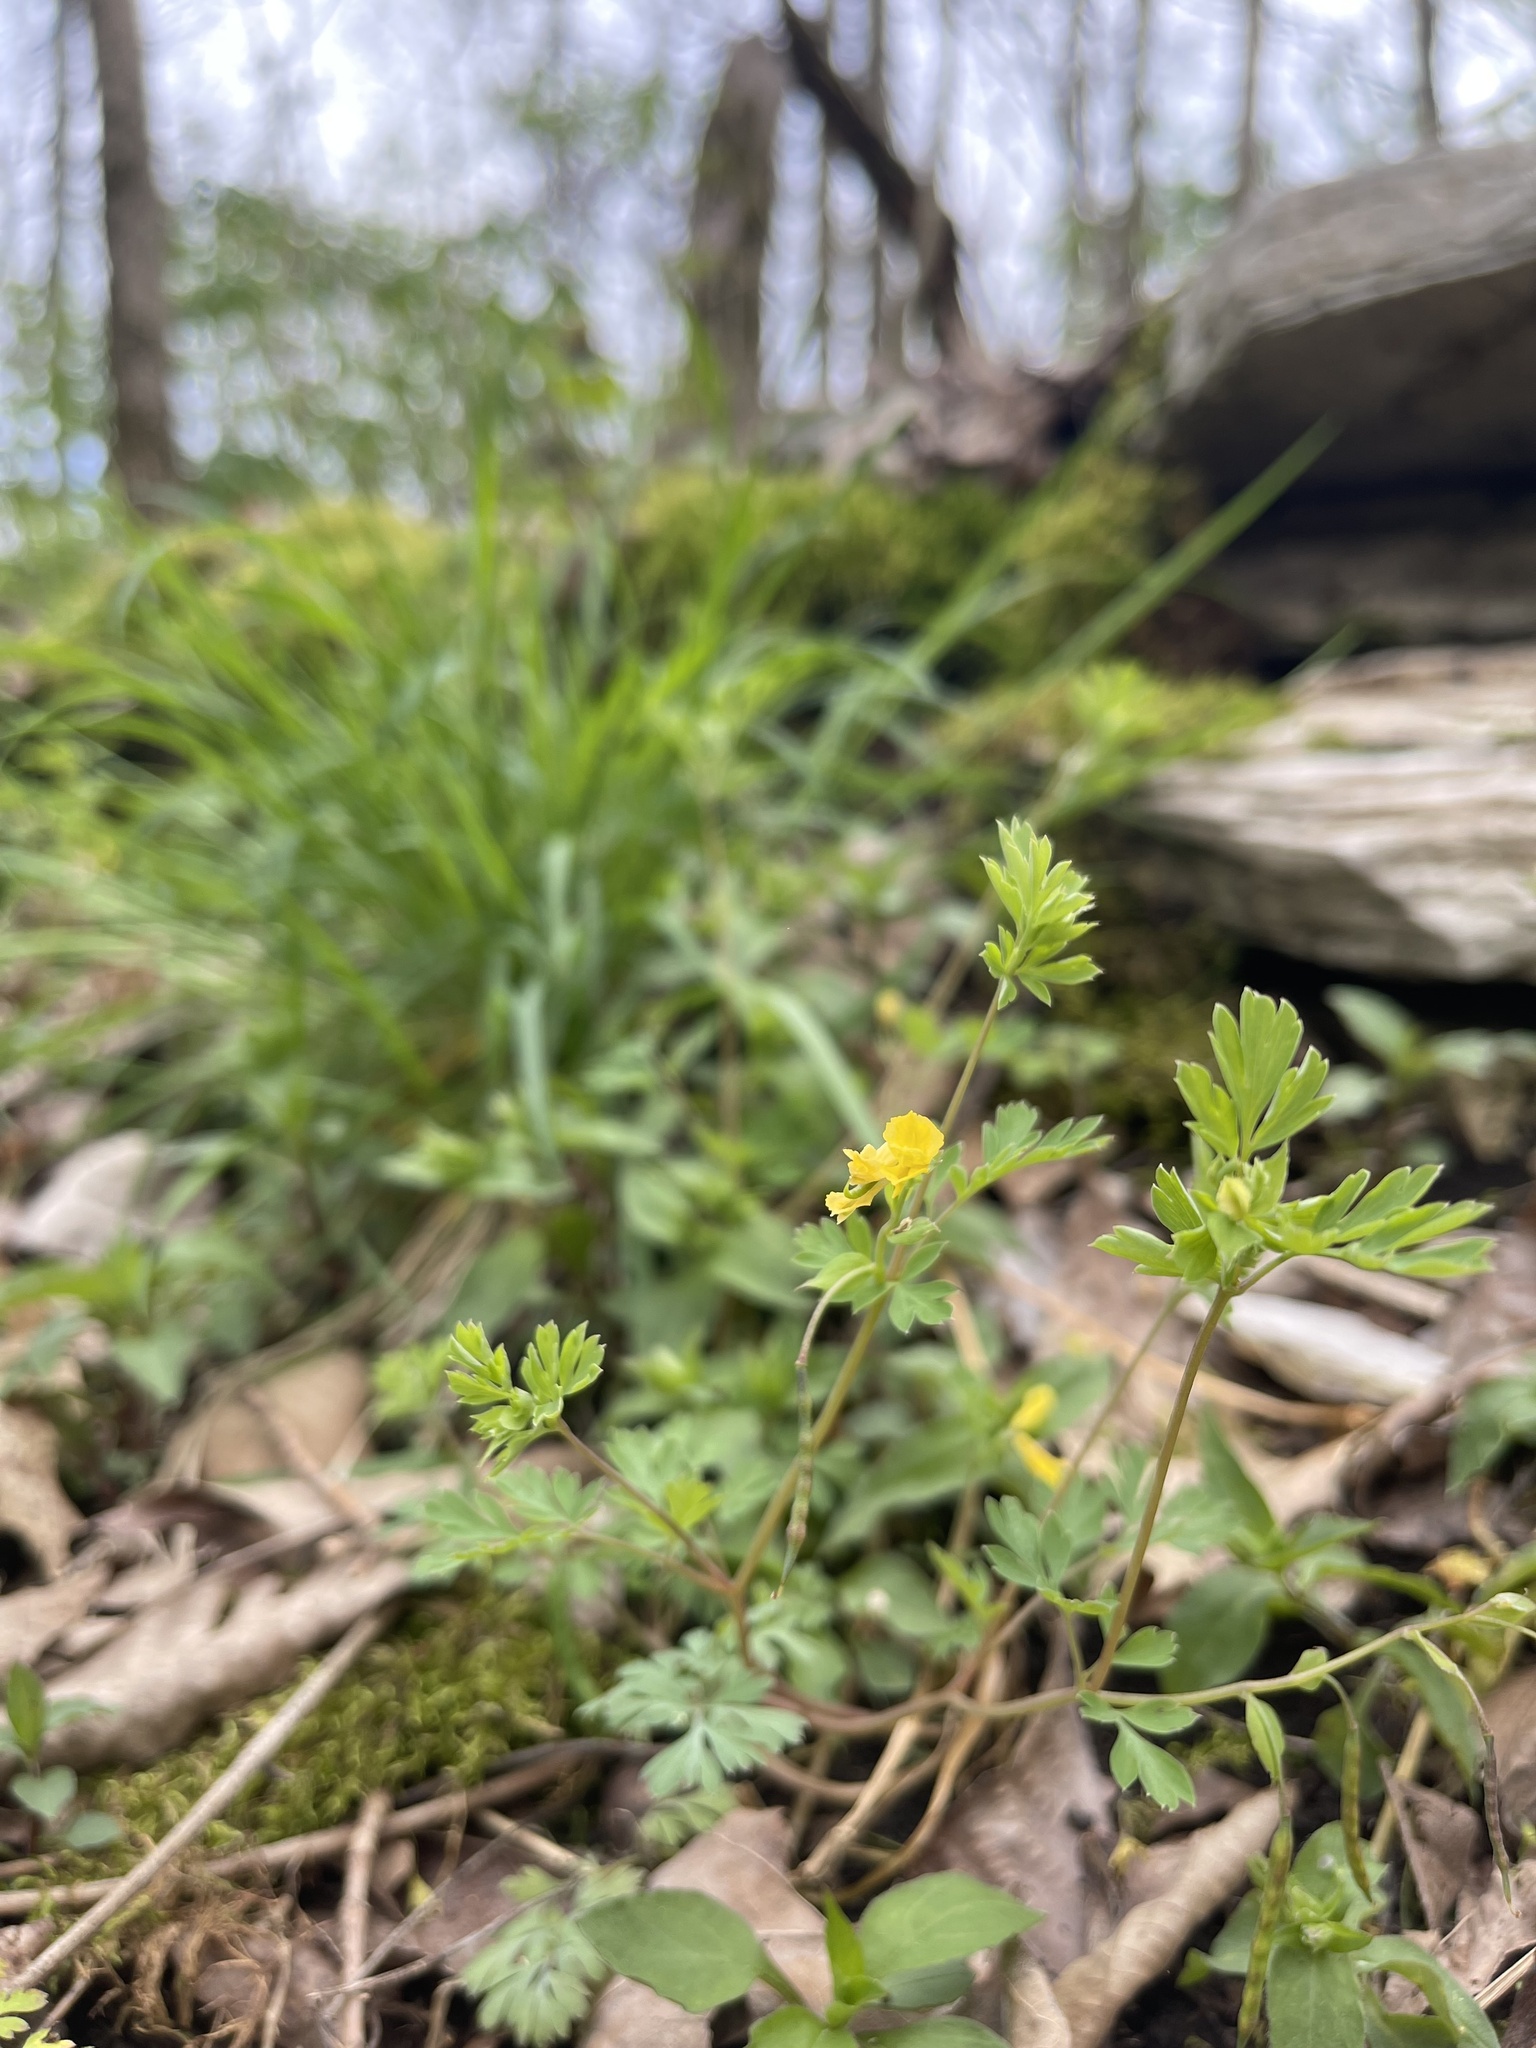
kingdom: Plantae
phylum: Tracheophyta
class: Magnoliopsida
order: Ranunculales
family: Papaveraceae
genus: Corydalis
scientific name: Corydalis flavula
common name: Yellow corydalis
